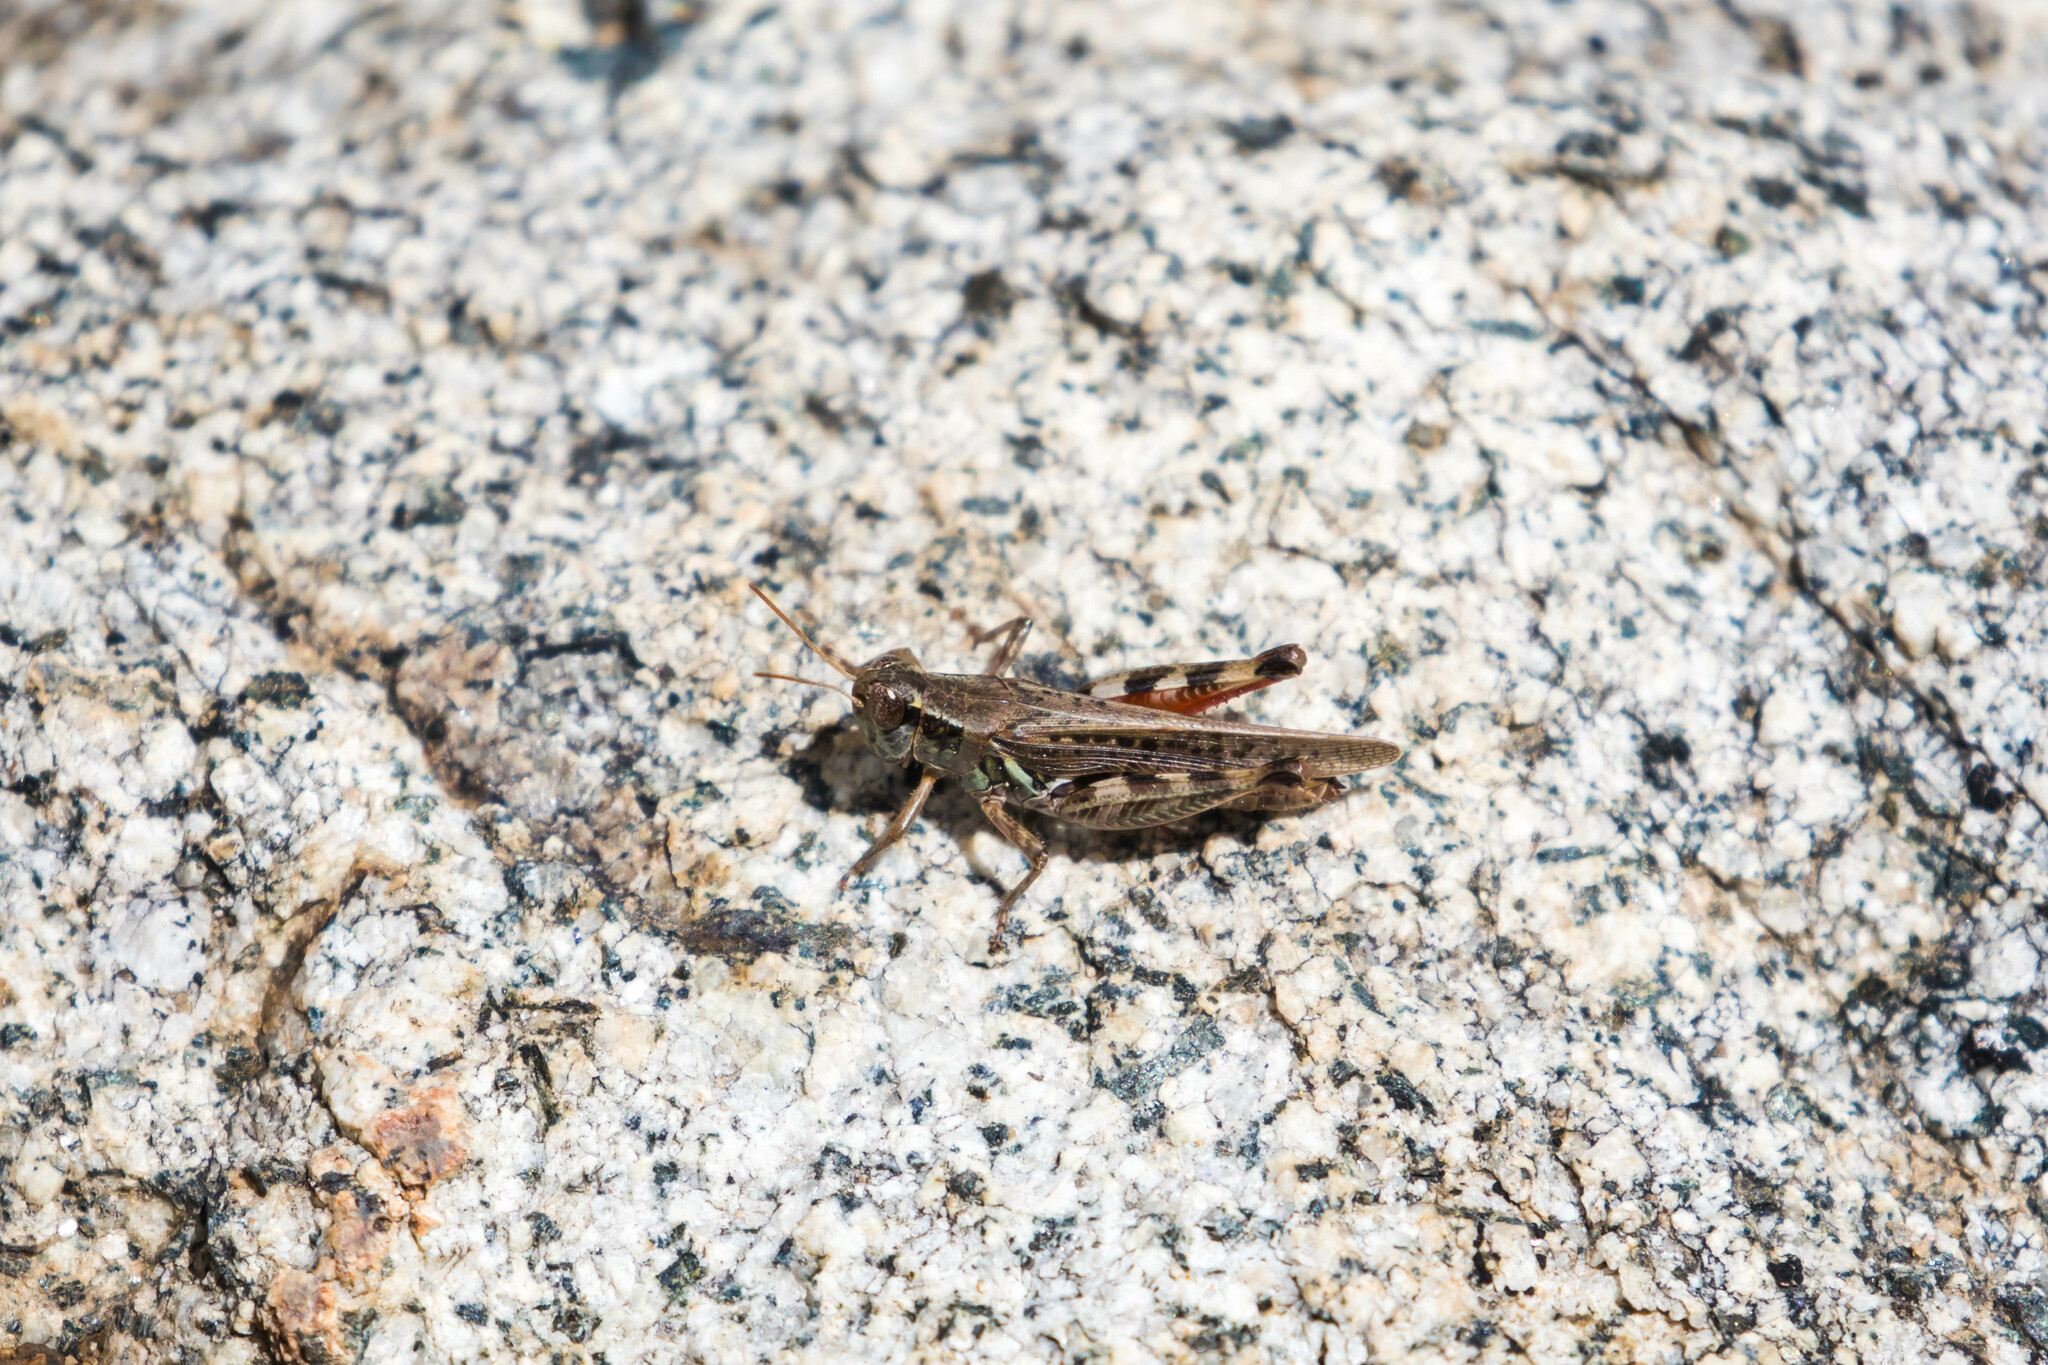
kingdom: Animalia
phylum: Arthropoda
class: Insecta
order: Orthoptera
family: Acrididae
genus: Melanoplus
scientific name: Melanoplus sanguinipes
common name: Migratory grasshopper
